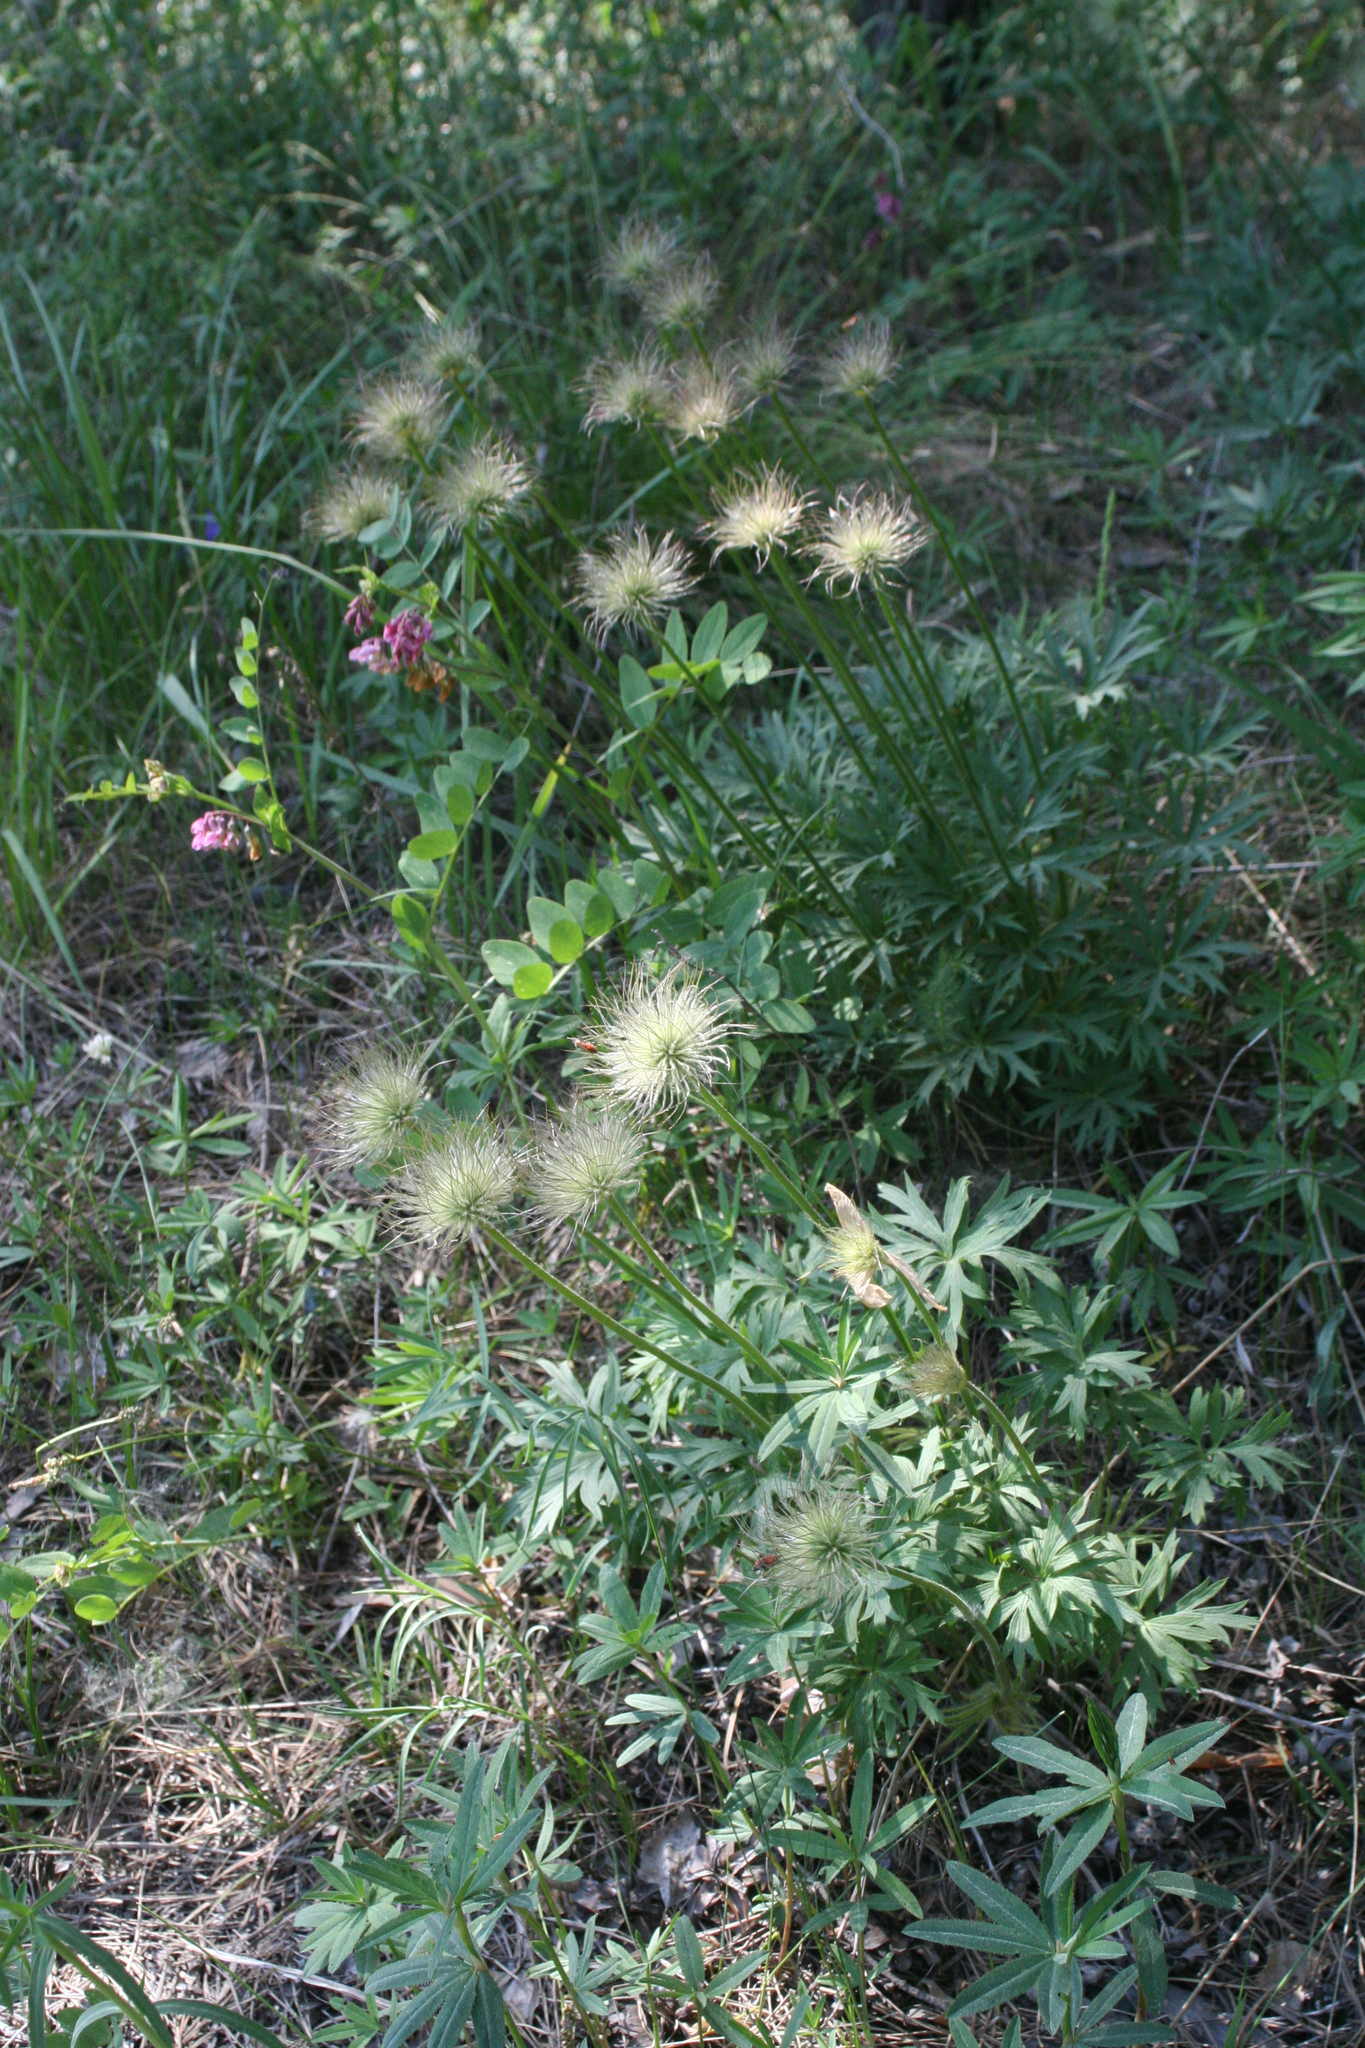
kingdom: Plantae
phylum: Tracheophyta
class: Magnoliopsida
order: Ranunculales
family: Ranunculaceae
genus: Pulsatilla
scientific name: Pulsatilla patens
